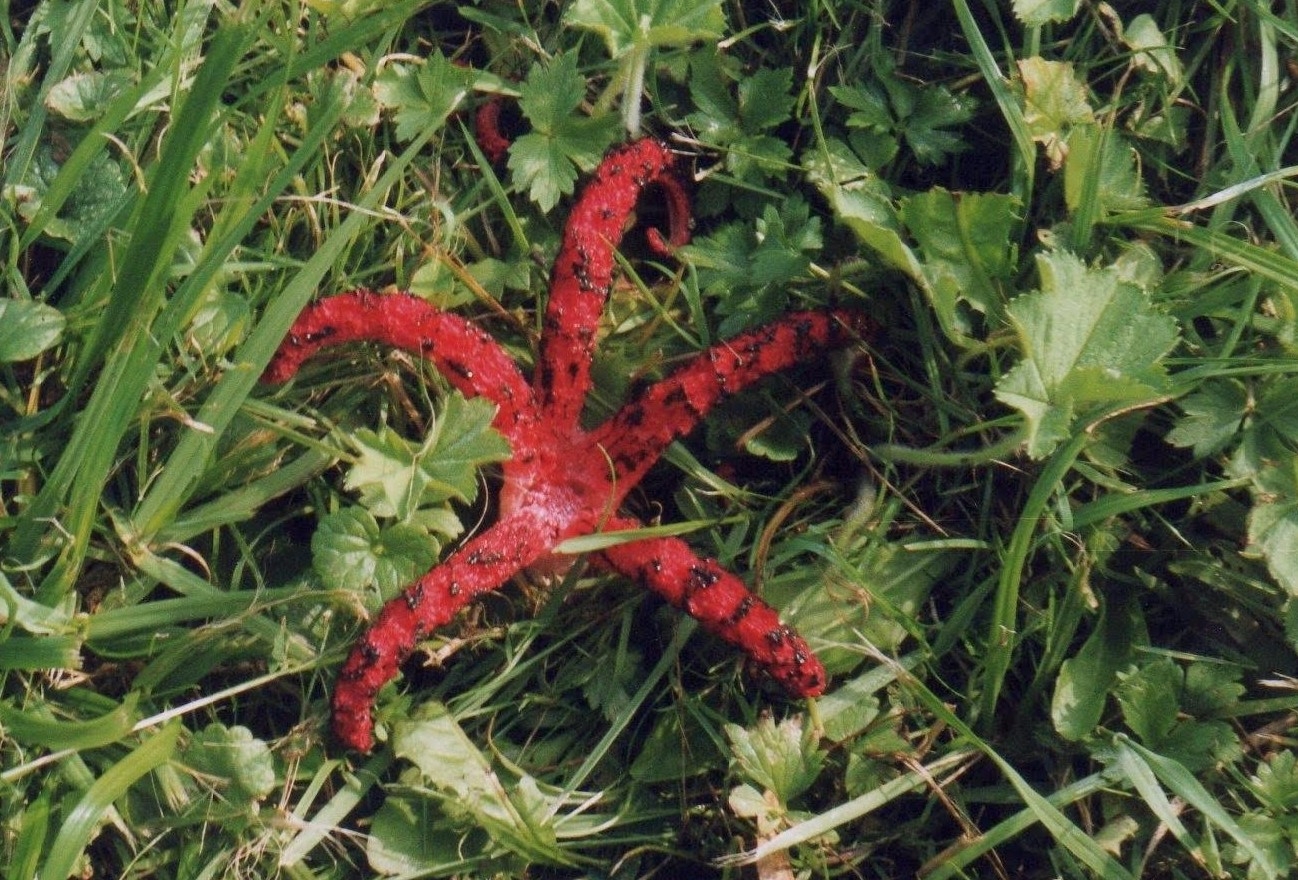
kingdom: Fungi
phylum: Basidiomycota
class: Agaricomycetes
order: Phallales
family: Phallaceae
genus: Clathrus
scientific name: Clathrus archeri
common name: Devil's fingers
